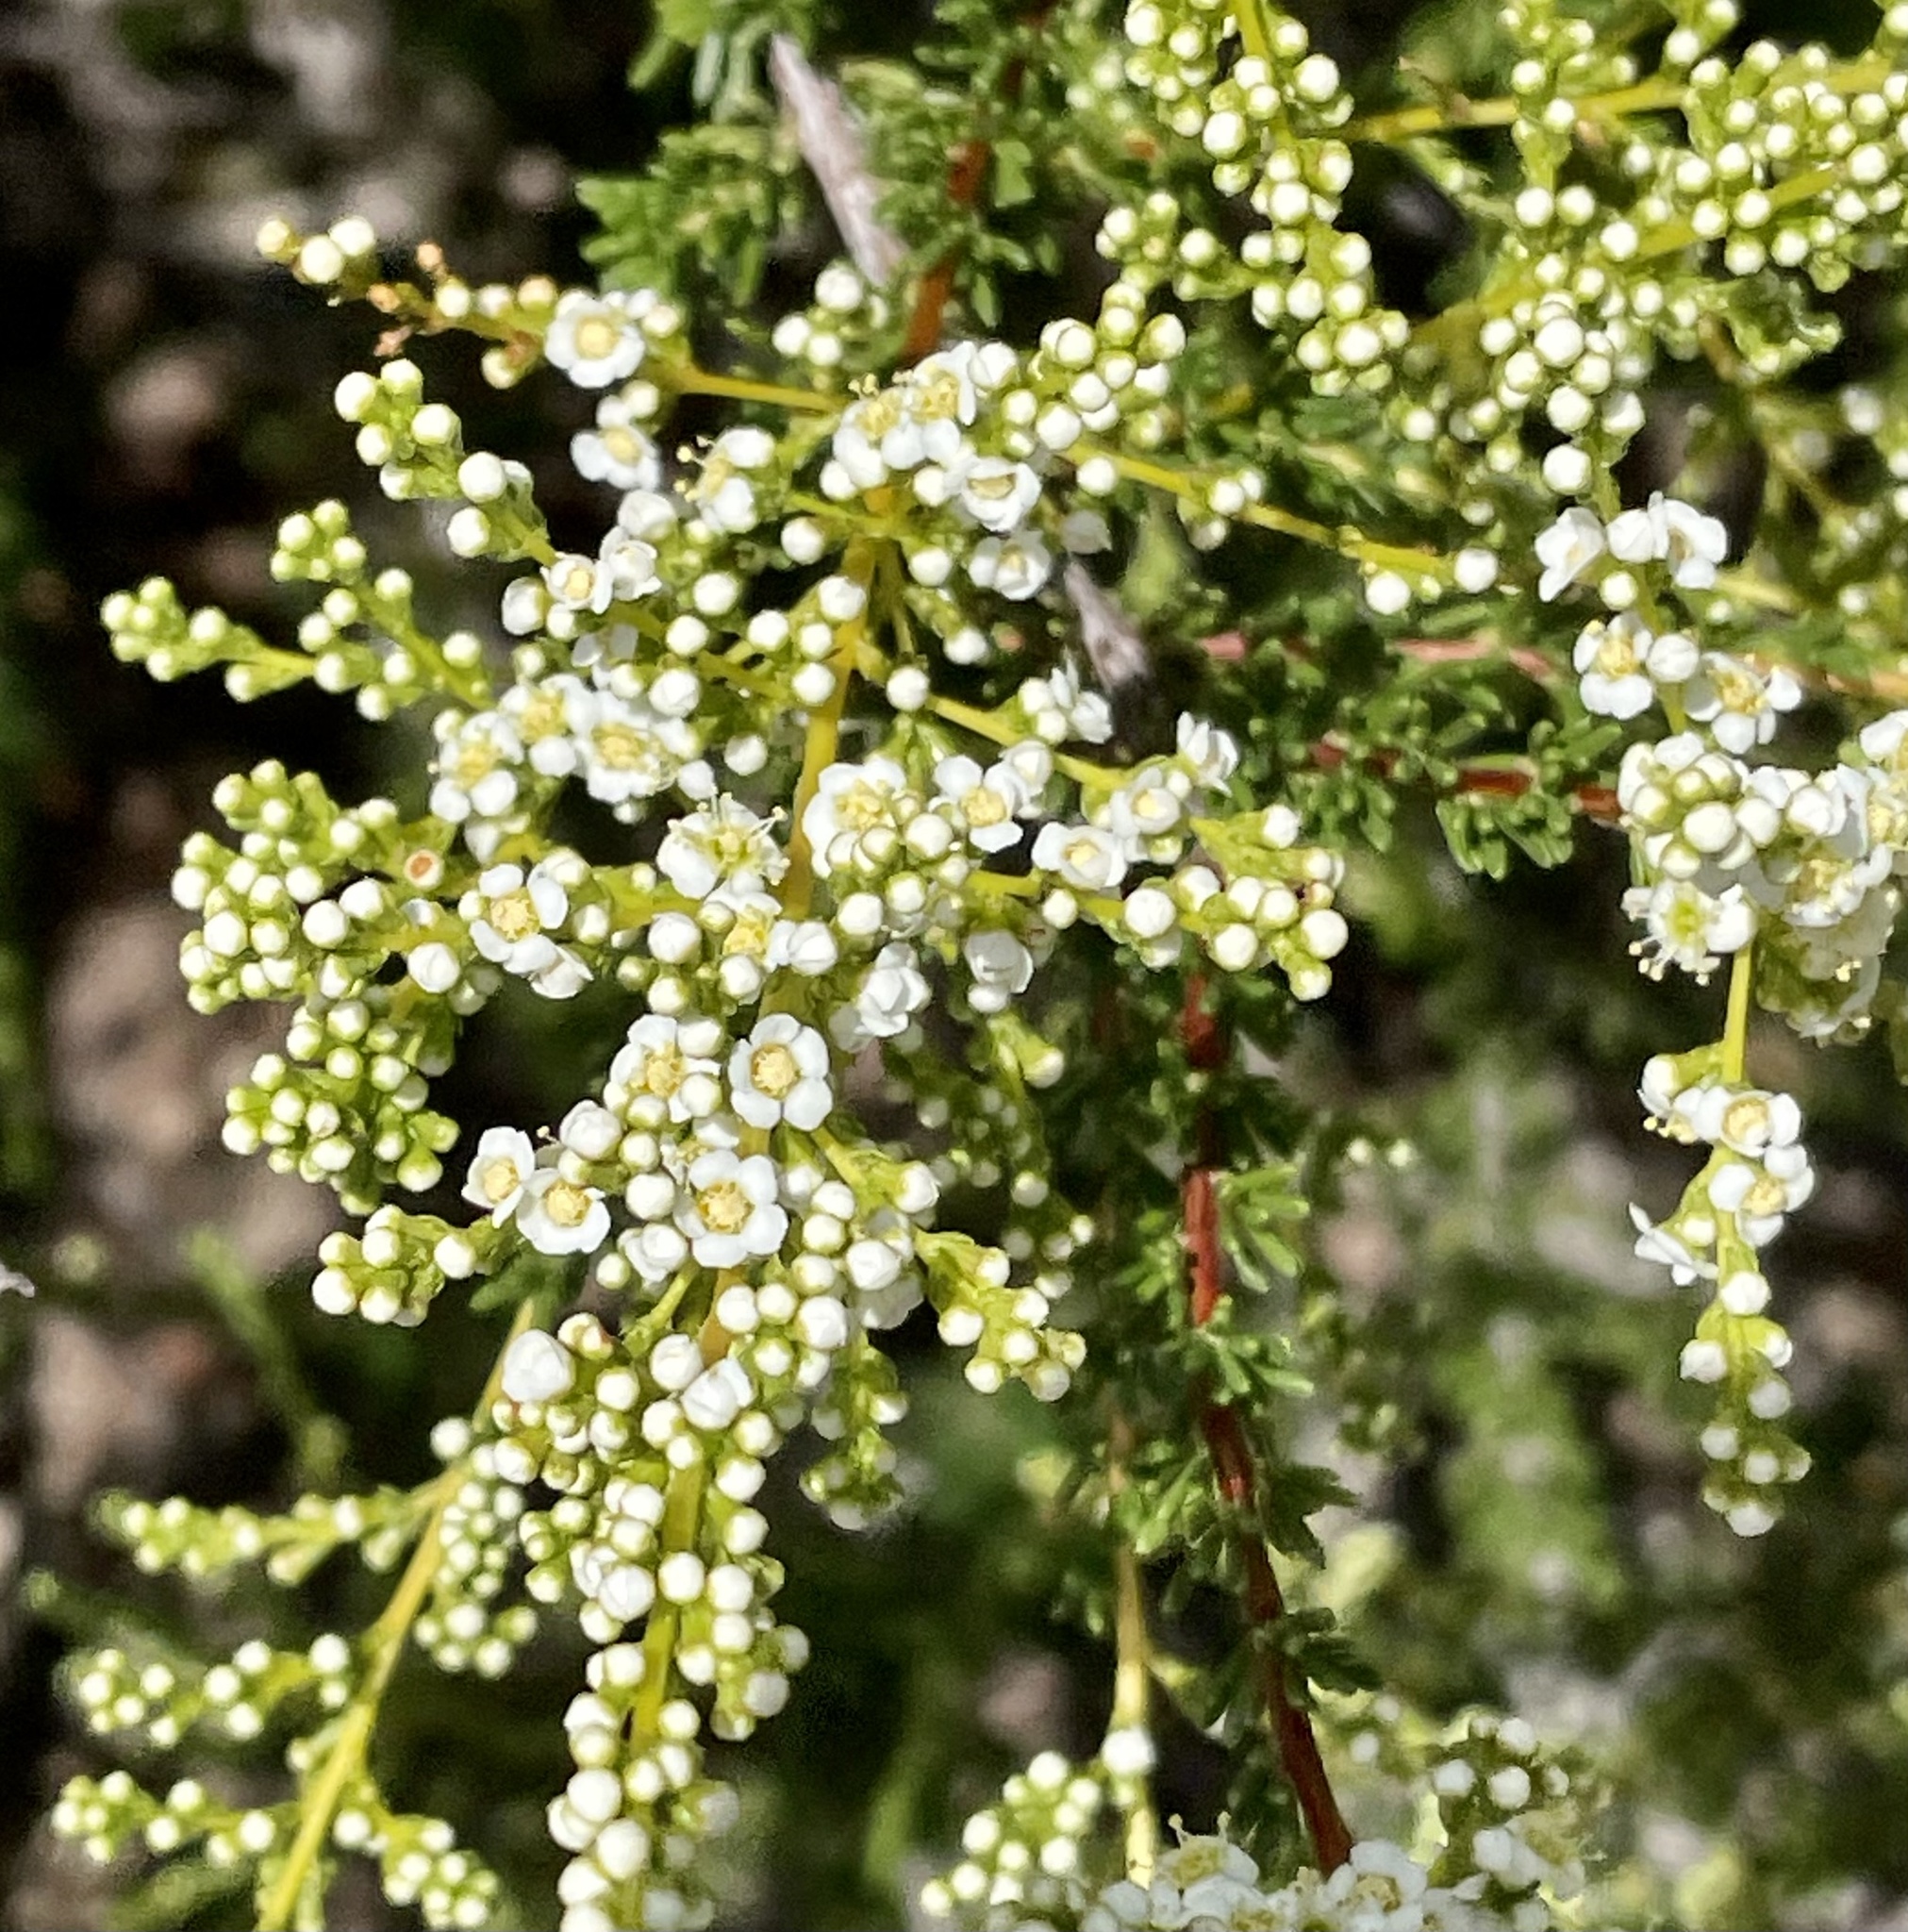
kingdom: Plantae
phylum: Tracheophyta
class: Magnoliopsida
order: Rosales
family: Rosaceae
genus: Adenostoma
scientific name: Adenostoma fasciculatum
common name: Chamise
